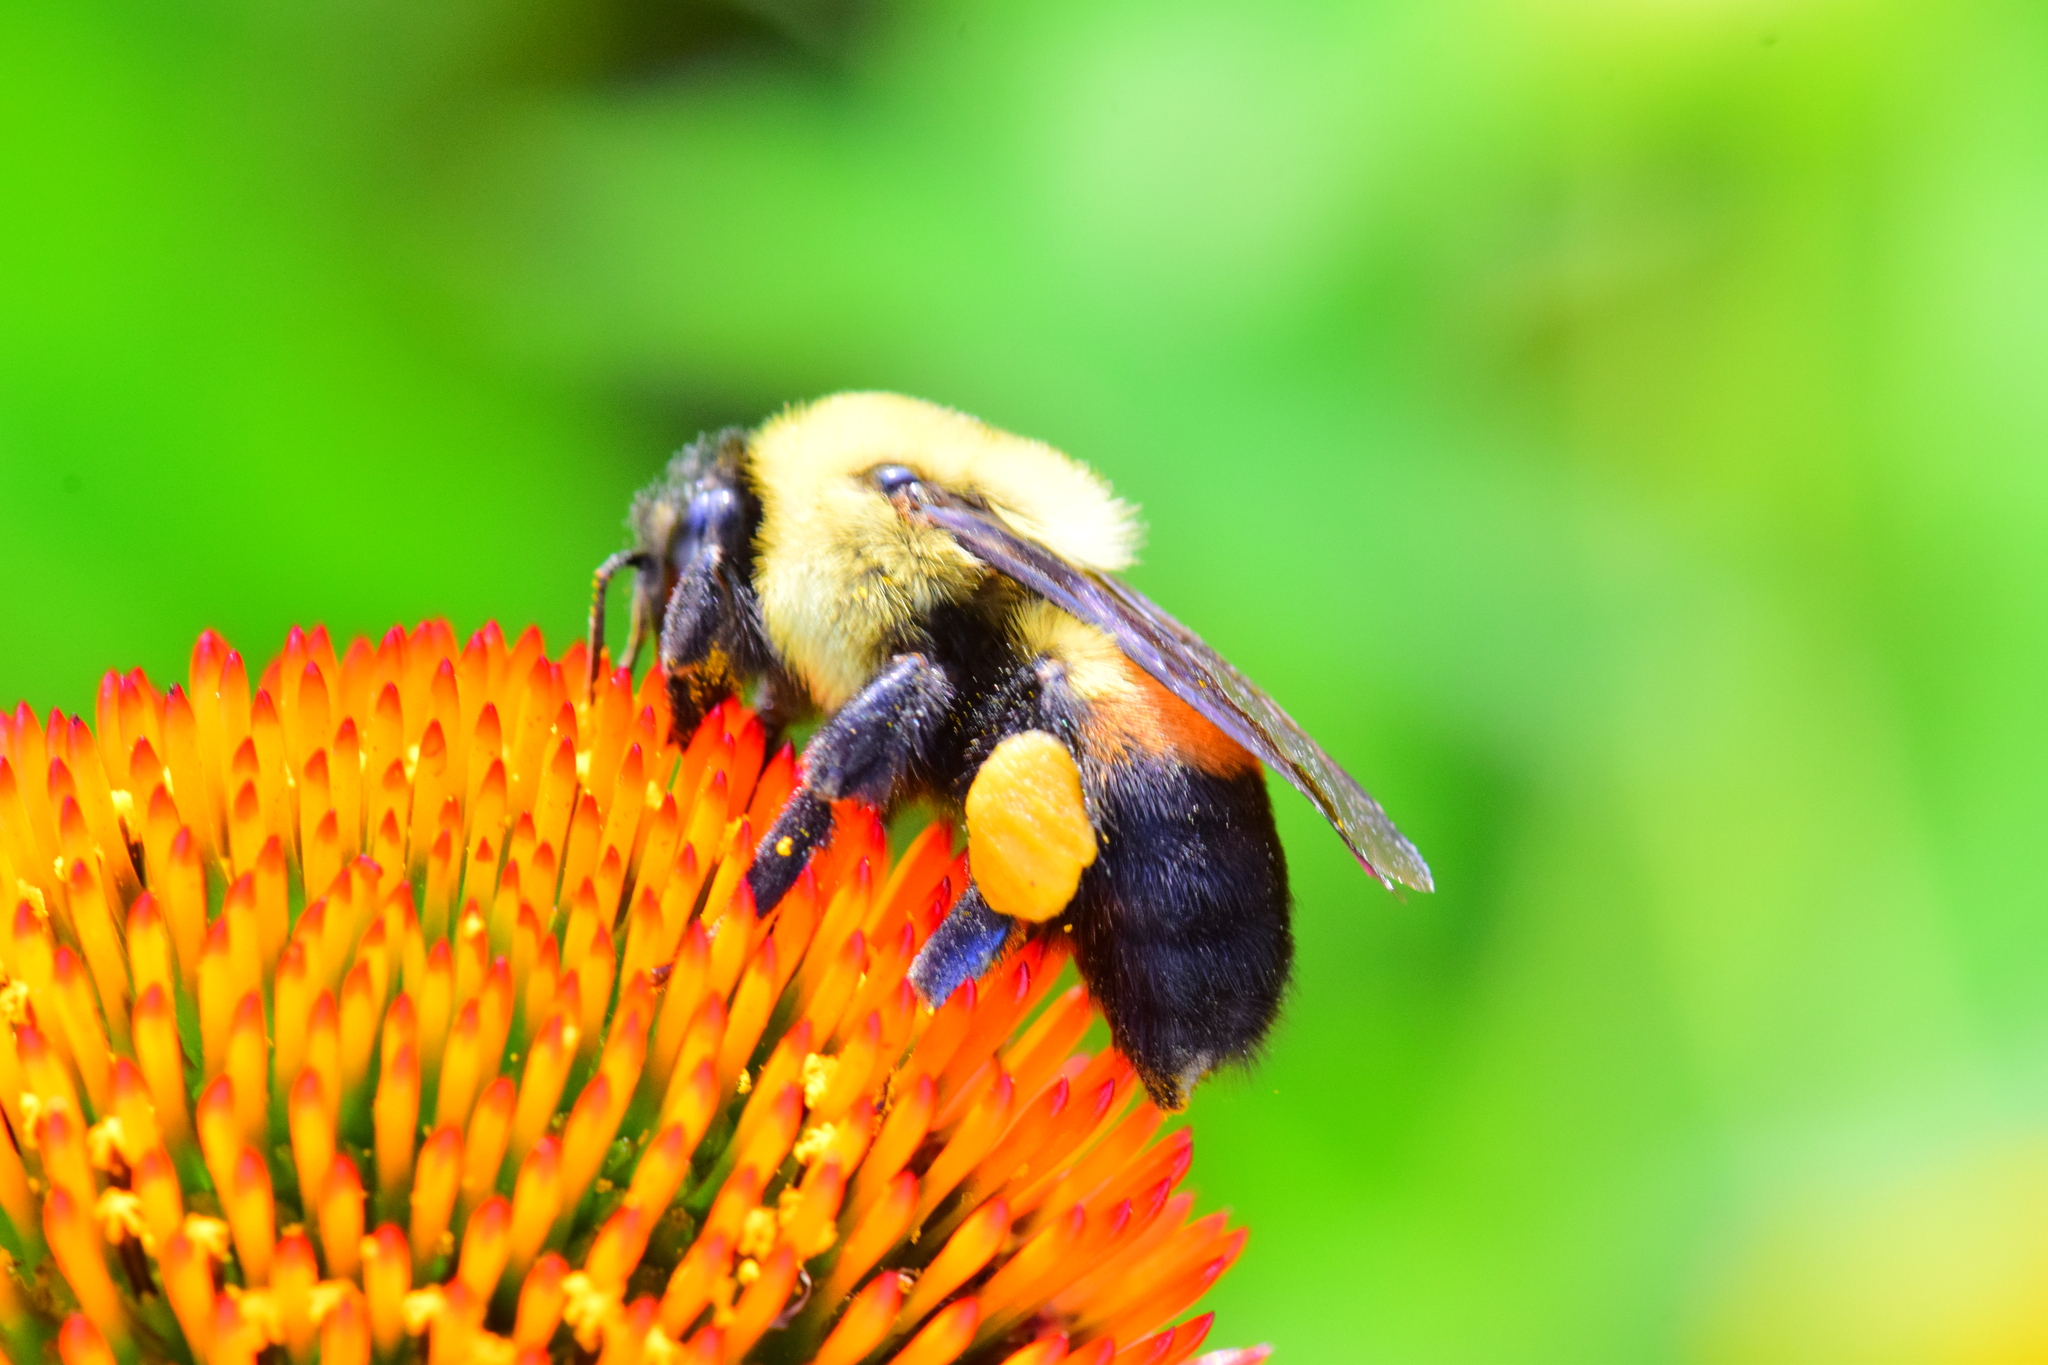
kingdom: Animalia
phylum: Arthropoda
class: Insecta
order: Hymenoptera
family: Apidae
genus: Bombus
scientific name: Bombus griseocollis
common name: Brown-belted bumble bee
